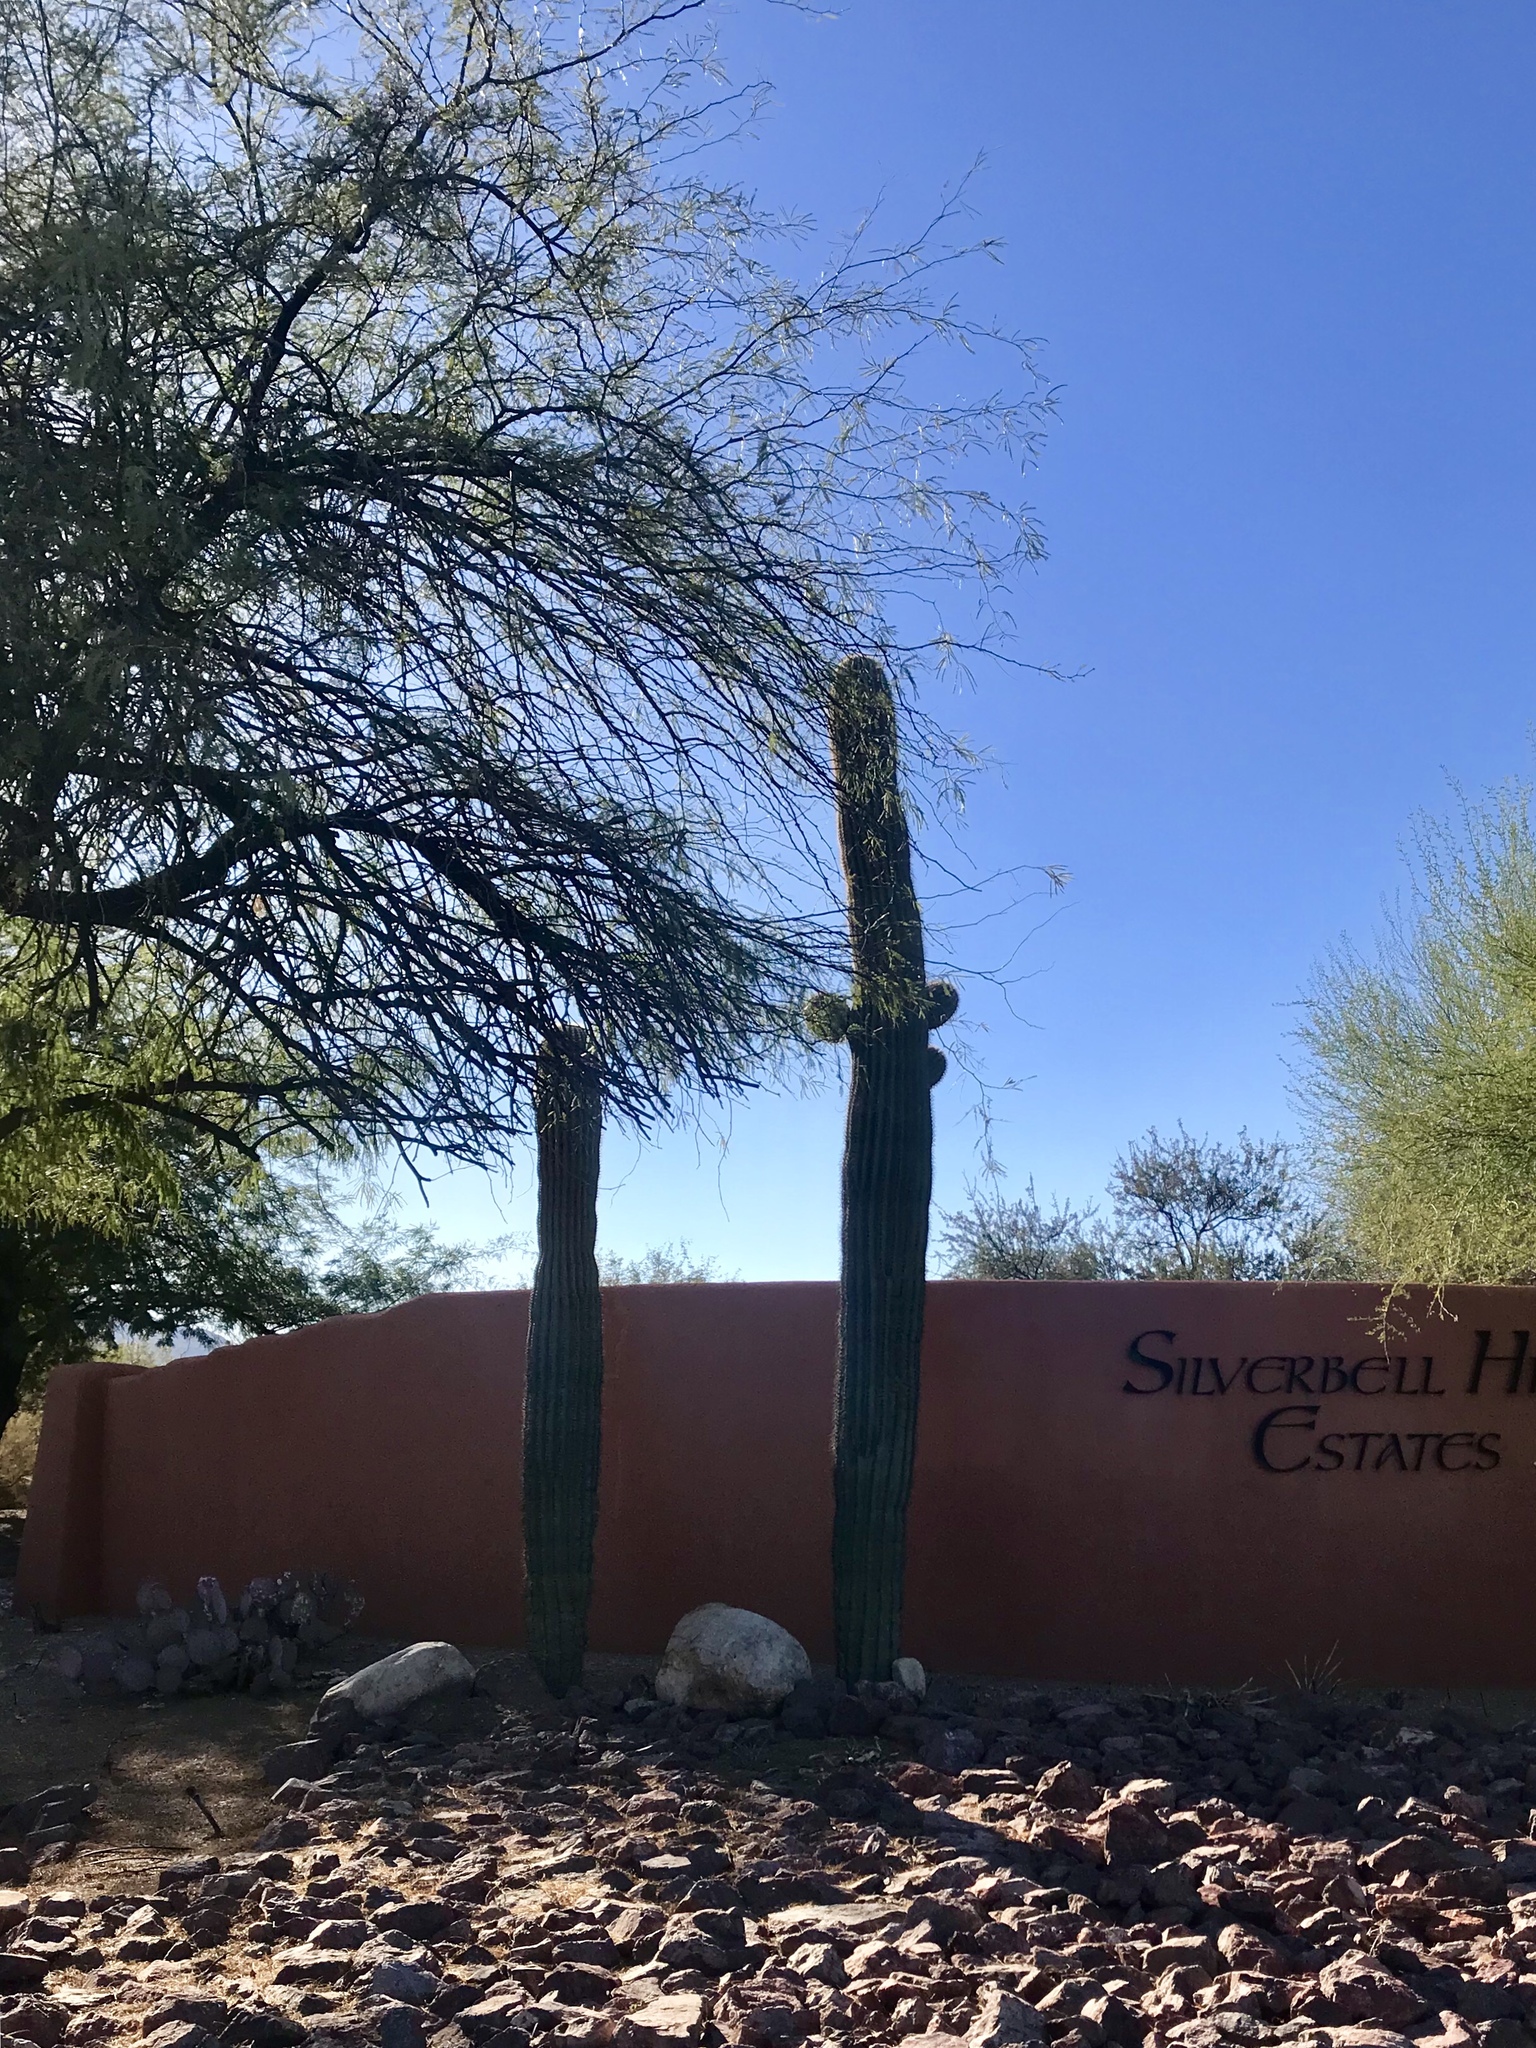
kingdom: Plantae
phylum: Tracheophyta
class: Magnoliopsida
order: Caryophyllales
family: Cactaceae
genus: Carnegiea
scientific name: Carnegiea gigantea
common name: Saguaro
